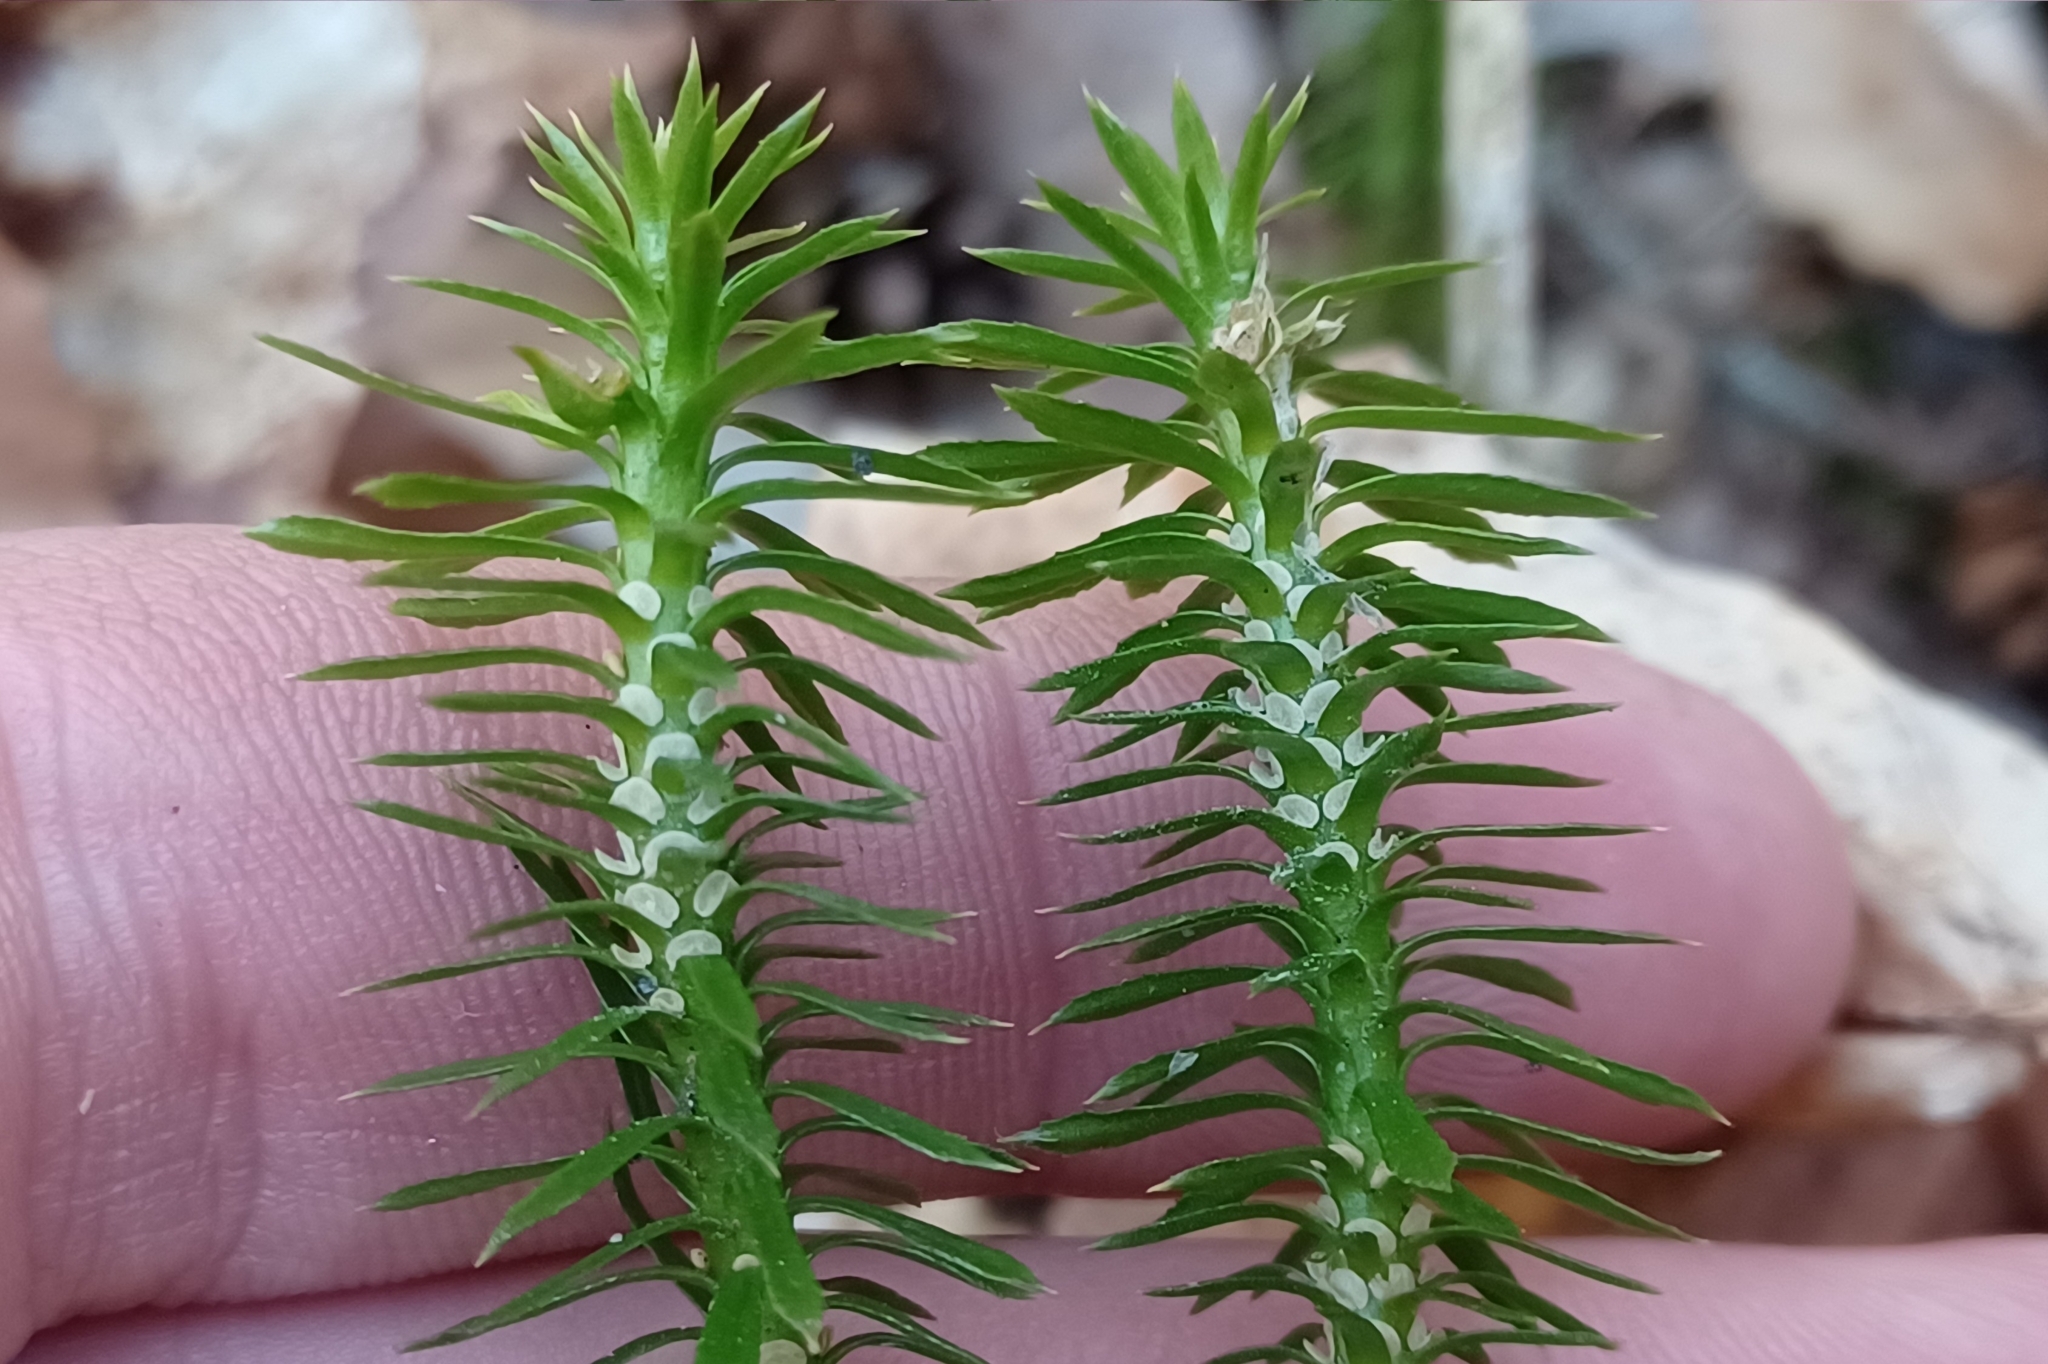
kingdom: Plantae
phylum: Tracheophyta
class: Lycopodiopsida
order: Lycopodiales
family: Lycopodiaceae
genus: Huperzia
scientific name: Huperzia lucidula
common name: Shining clubmoss
